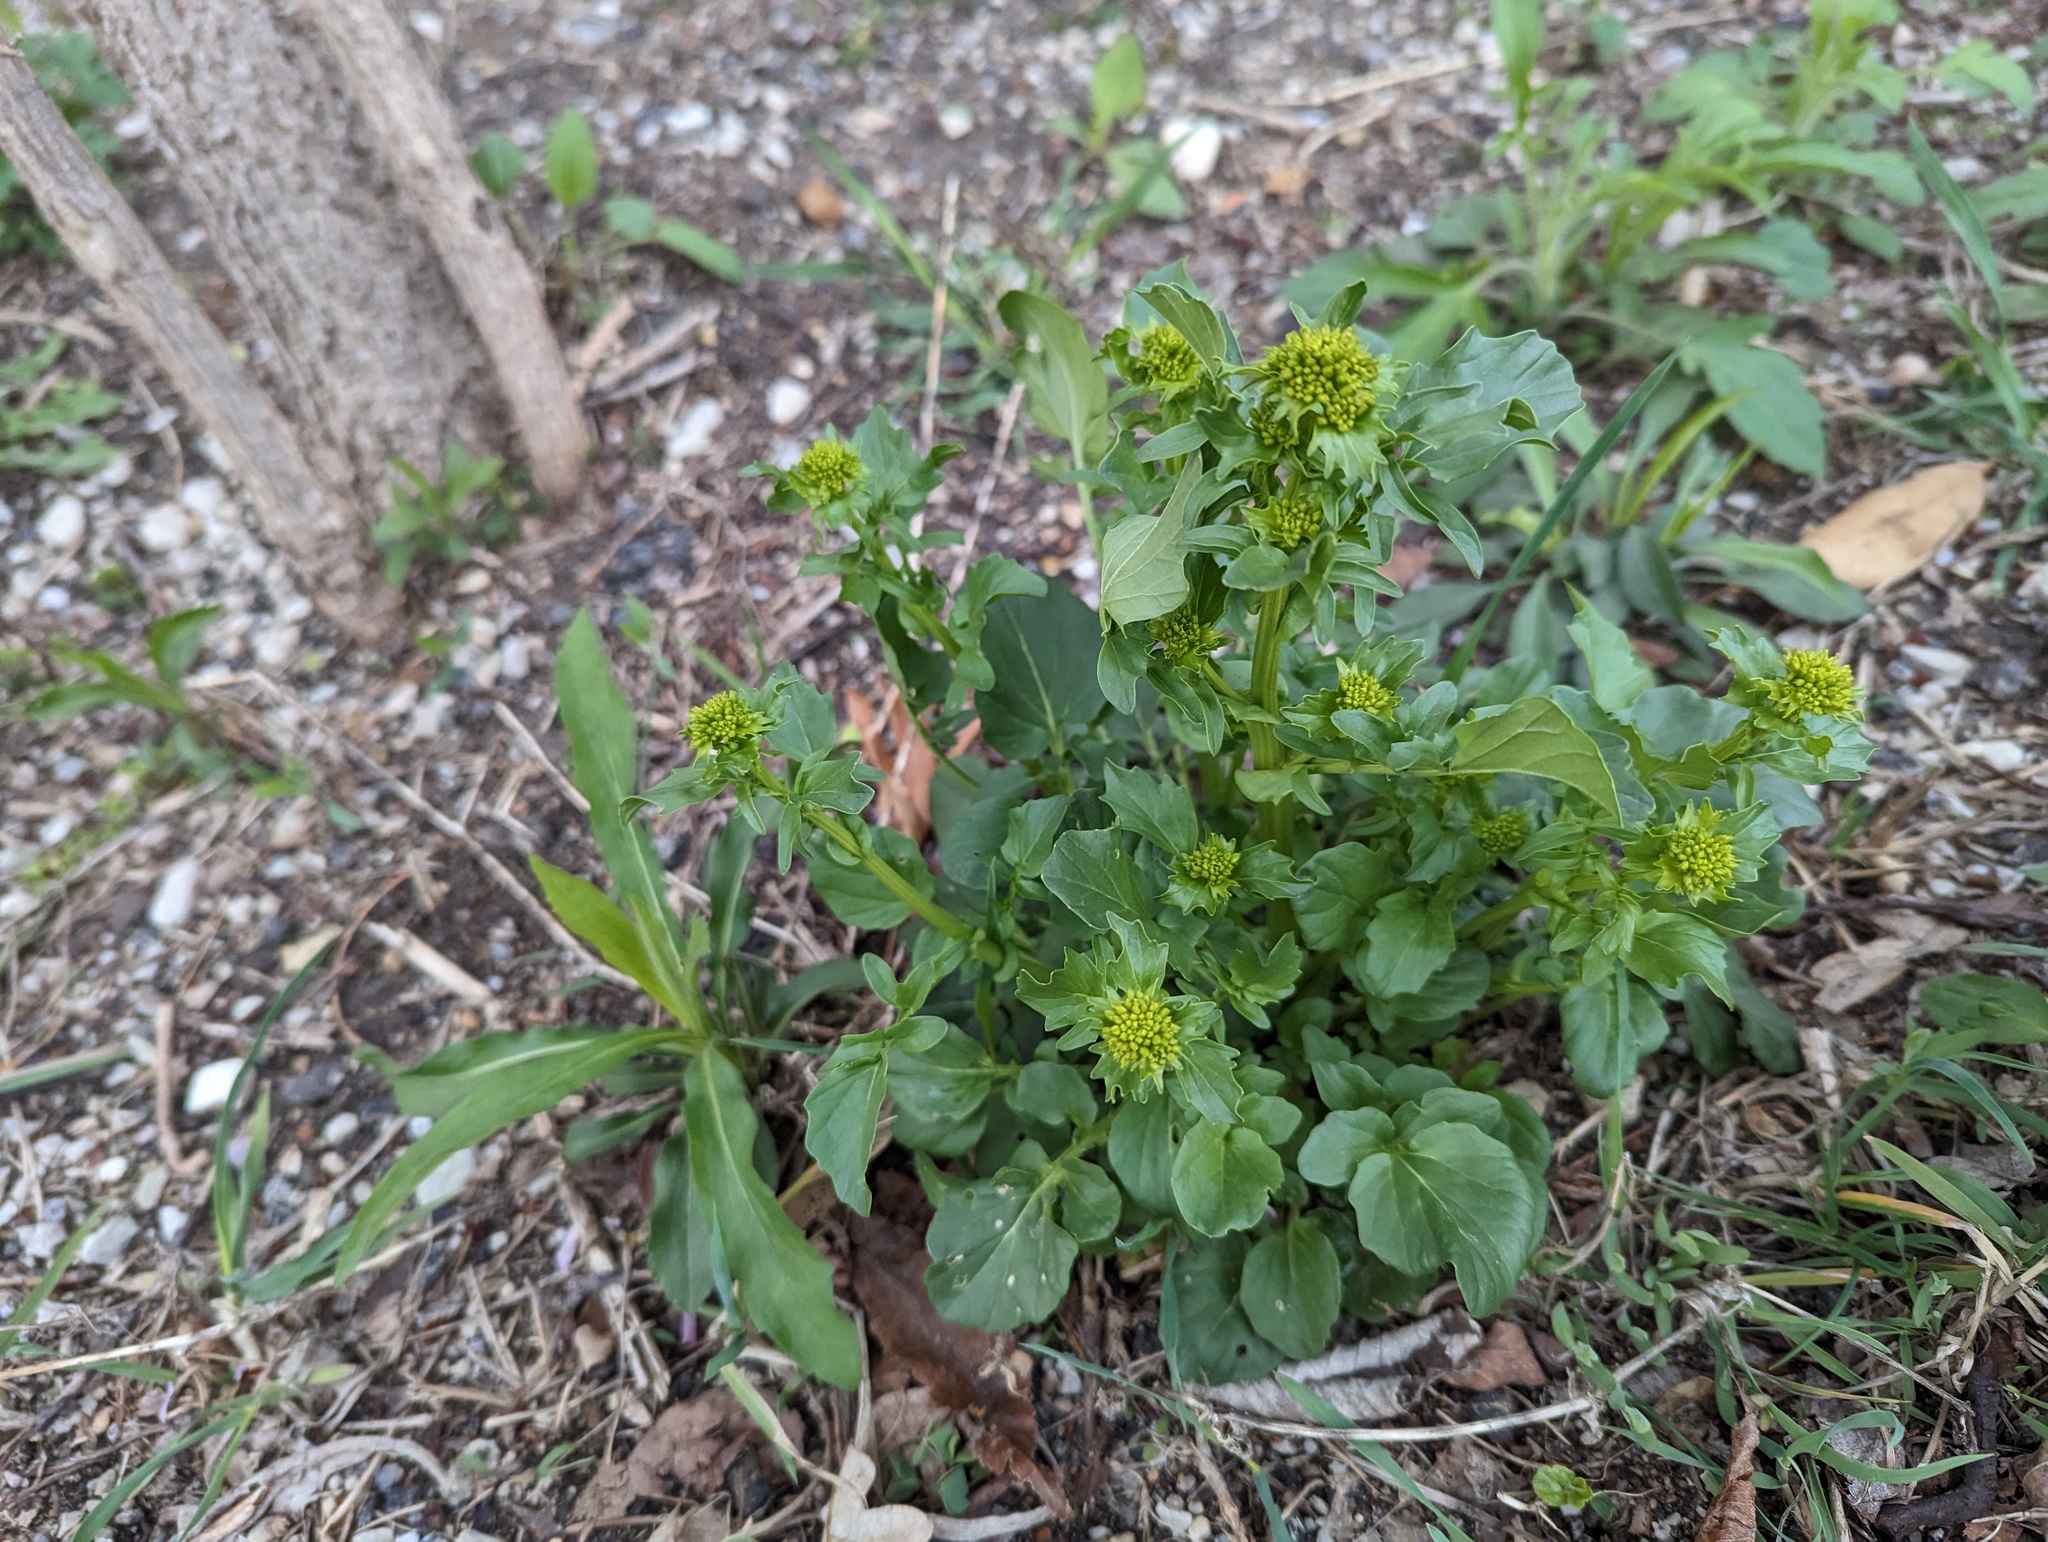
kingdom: Plantae
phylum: Tracheophyta
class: Magnoliopsida
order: Brassicales
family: Brassicaceae
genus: Barbarea
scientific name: Barbarea vulgaris
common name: Cressy-greens
